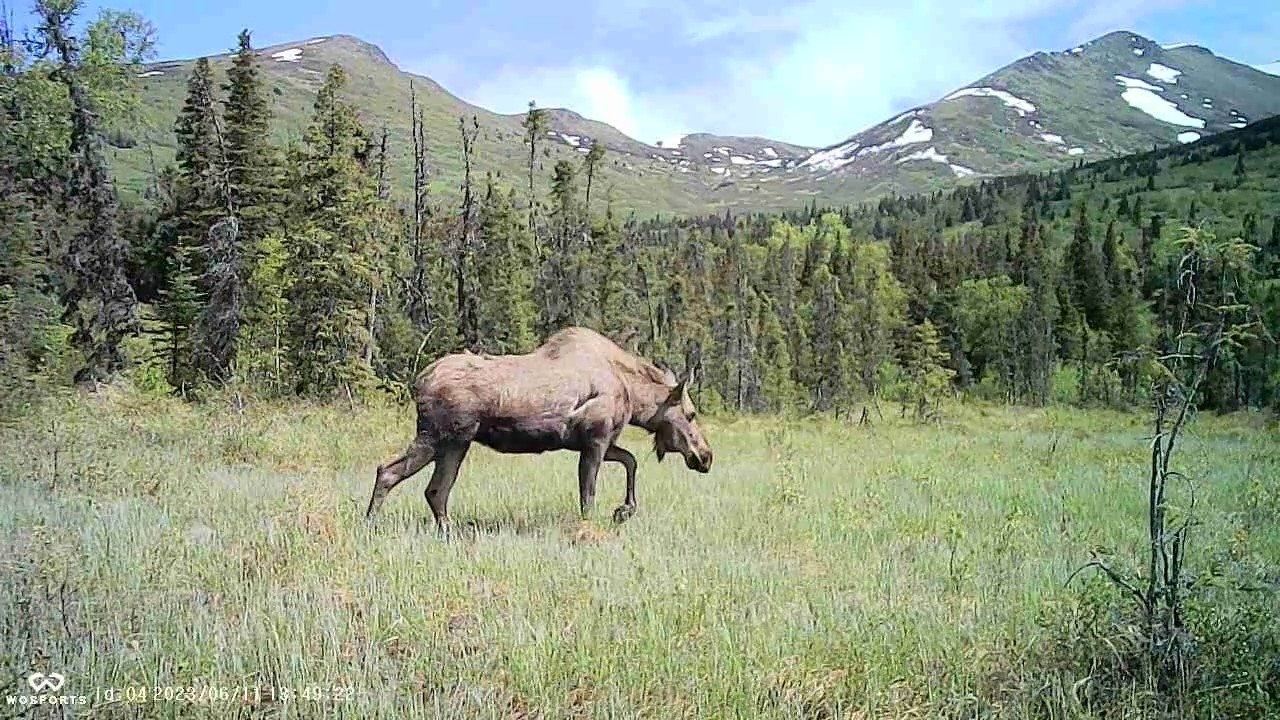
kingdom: Animalia
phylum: Chordata
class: Mammalia
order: Artiodactyla
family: Cervidae
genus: Alces
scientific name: Alces alces
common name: Moose
